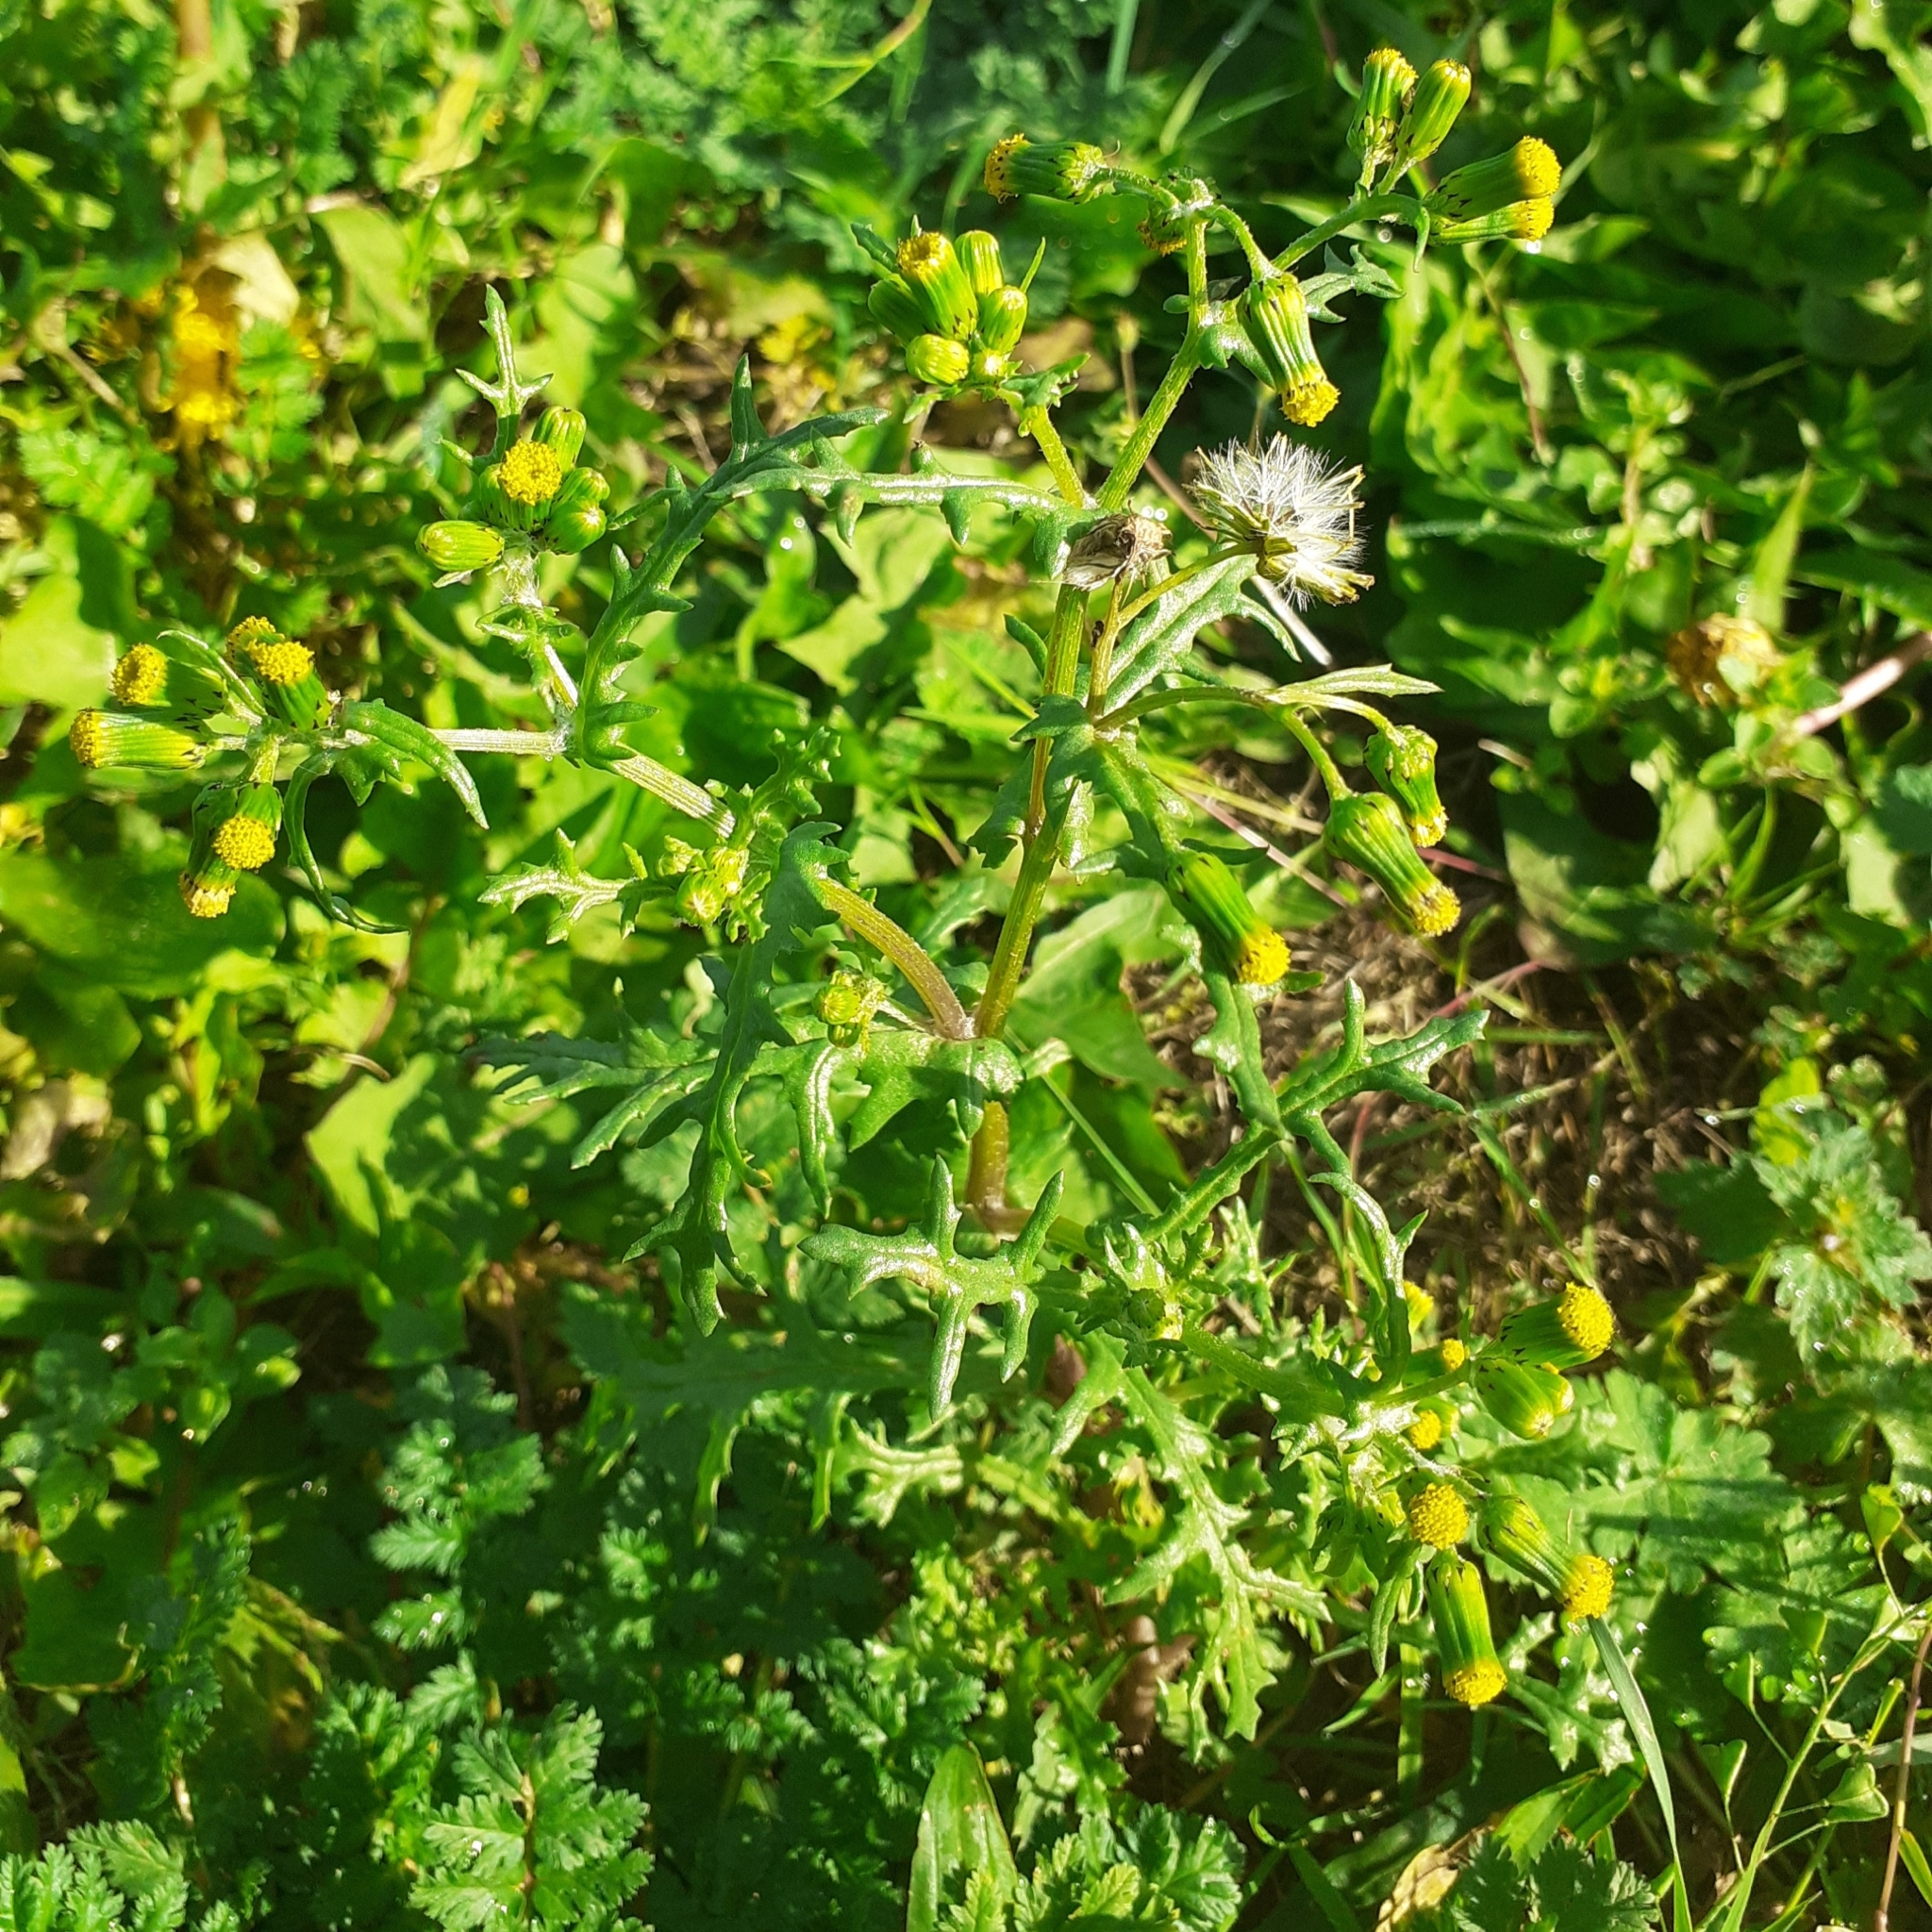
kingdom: Plantae
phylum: Tracheophyta
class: Magnoliopsida
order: Asterales
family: Asteraceae
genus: Senecio
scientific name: Senecio vulgaris
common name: Old-man-in-the-spring
